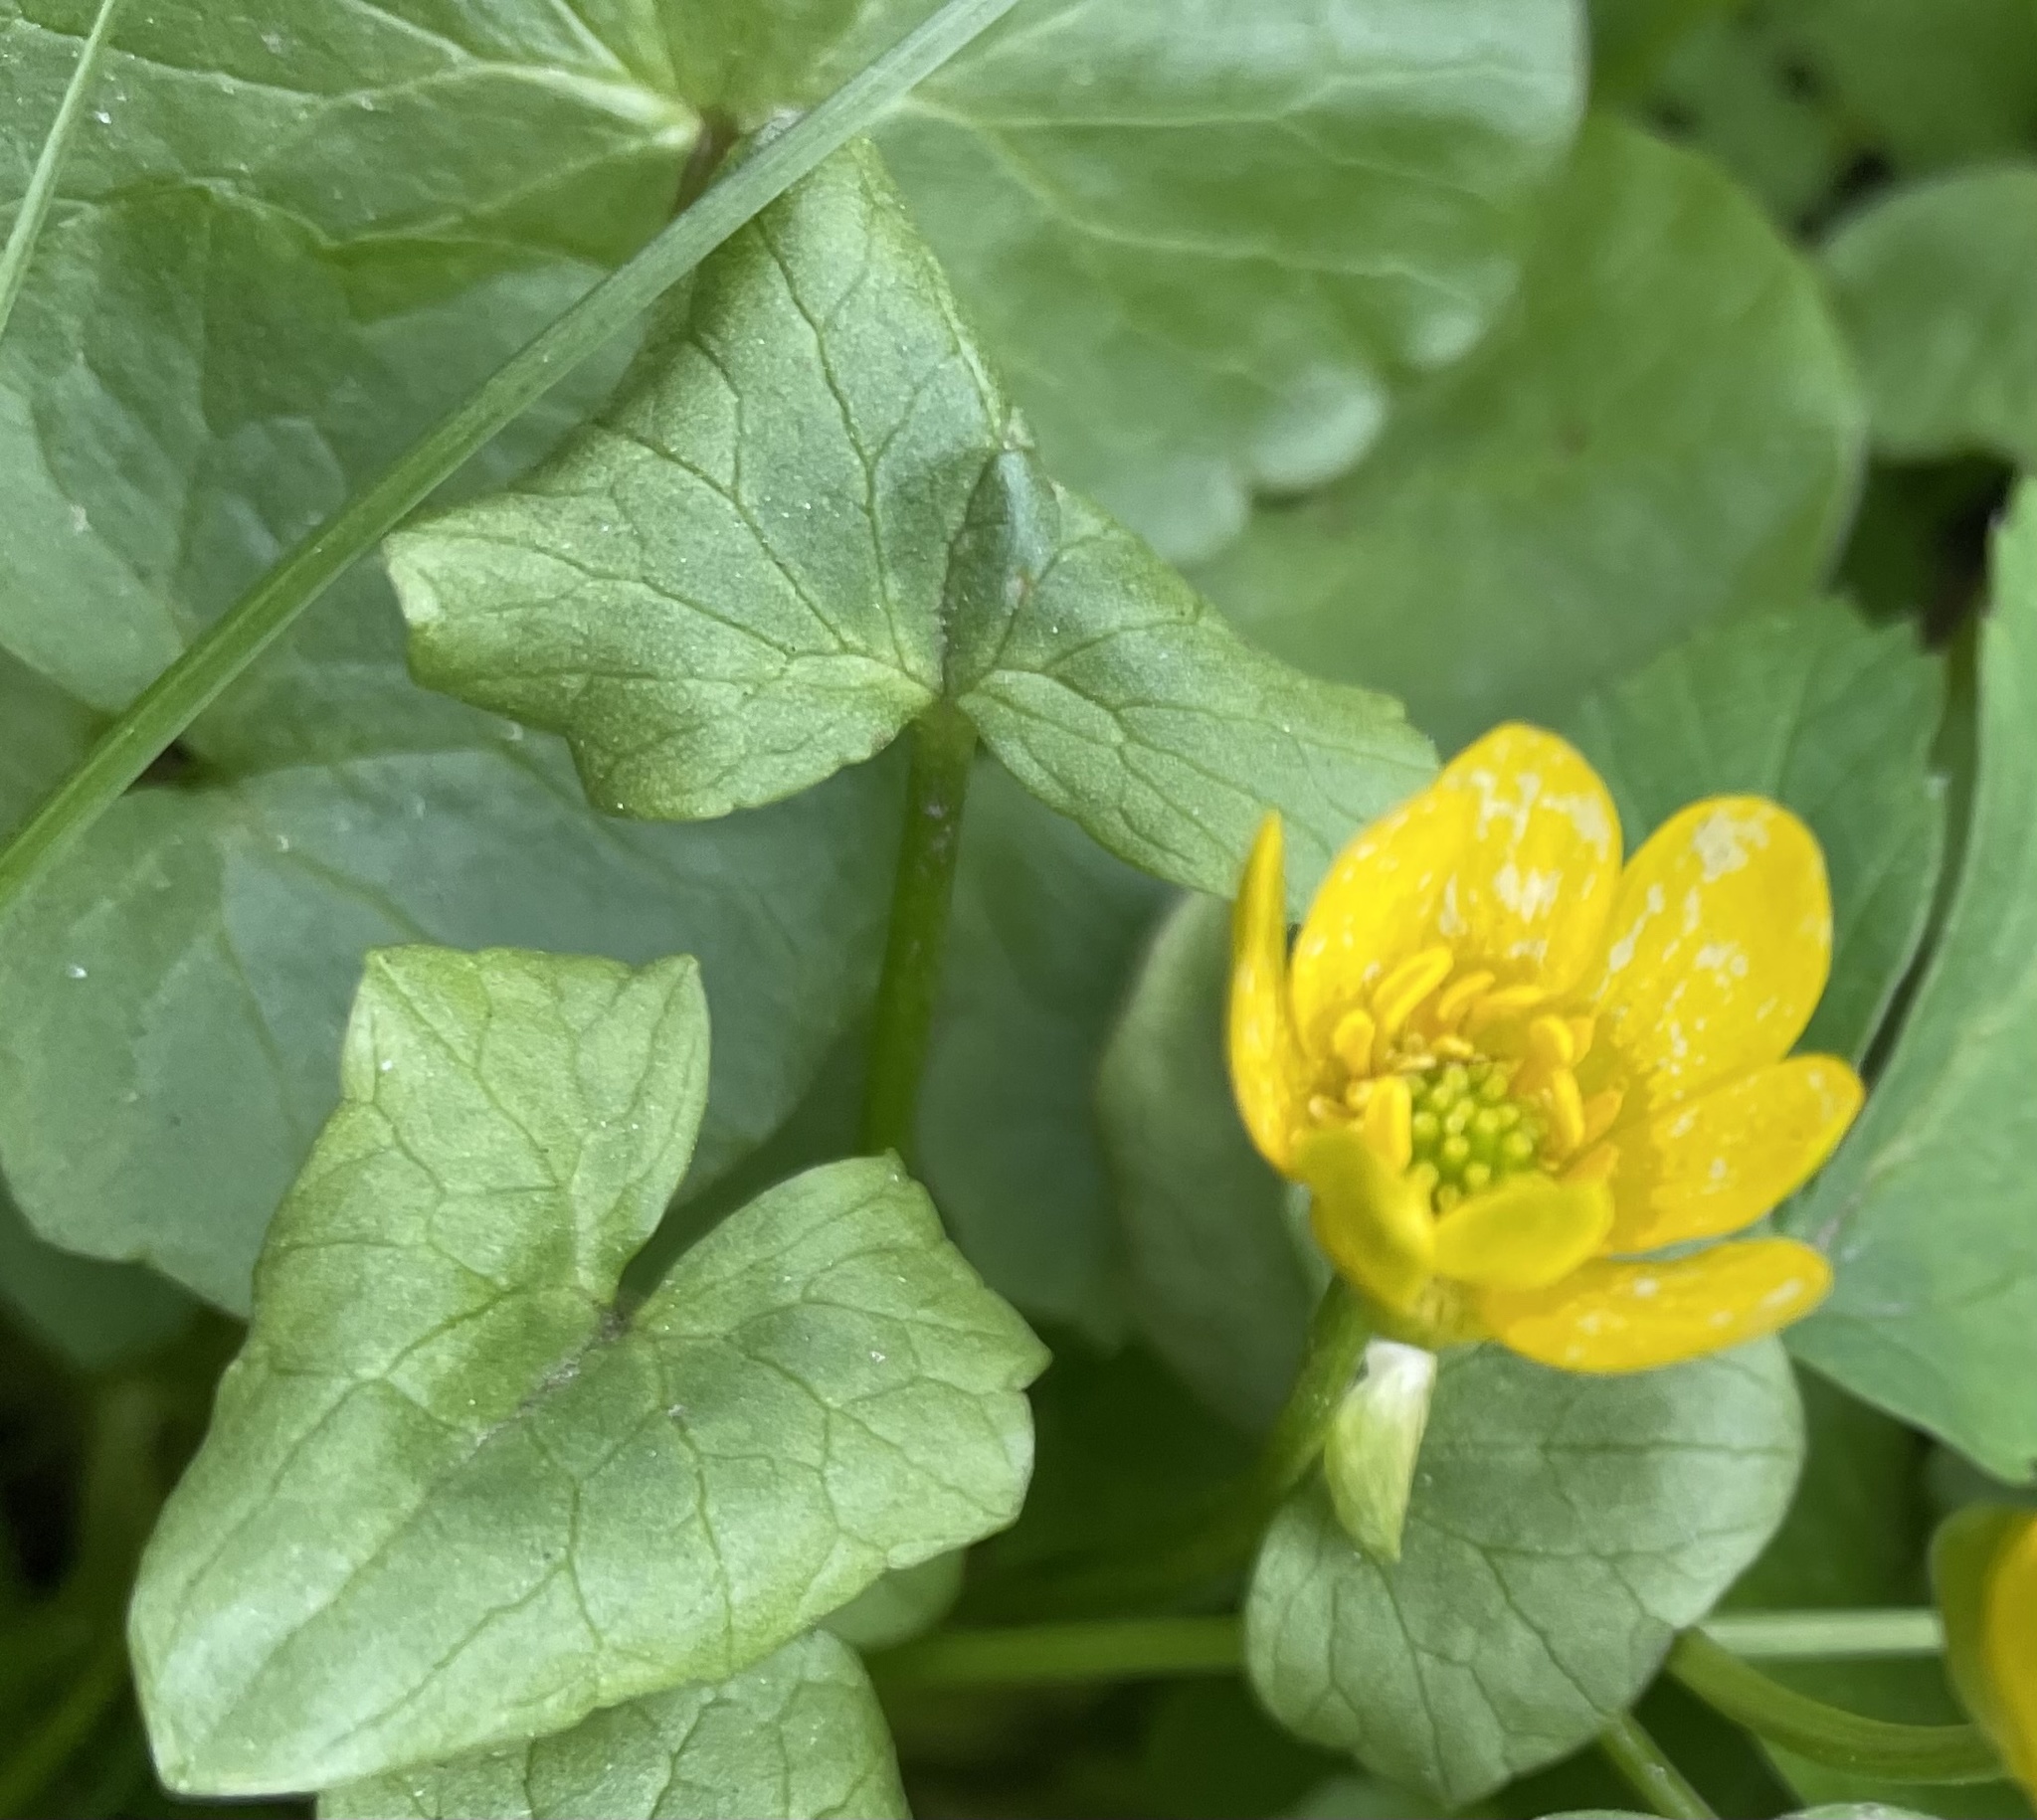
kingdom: Plantae
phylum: Tracheophyta
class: Magnoliopsida
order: Ranunculales
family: Ranunculaceae
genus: Ficaria
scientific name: Ficaria verna
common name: Lesser celandine
